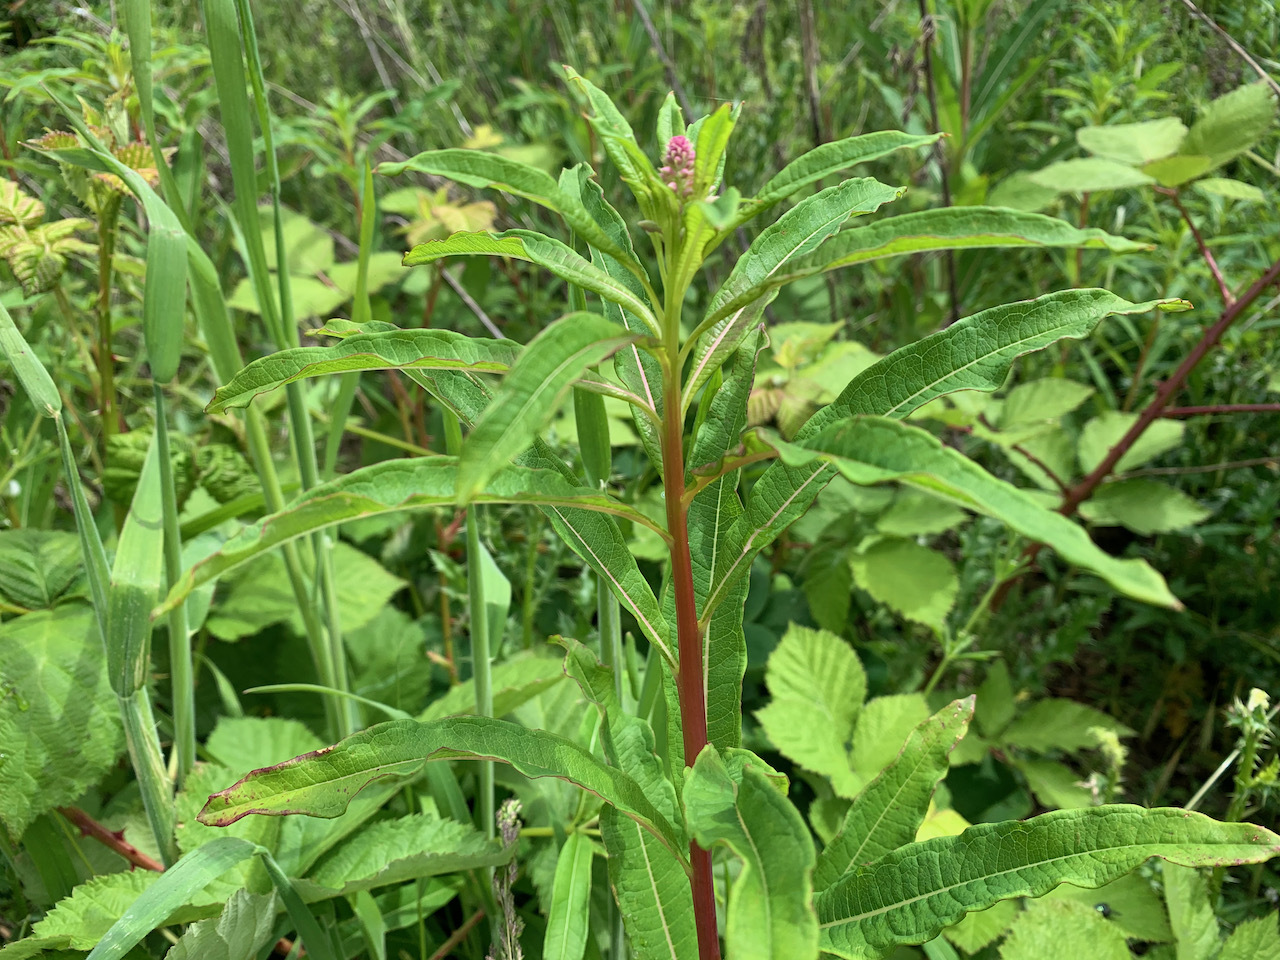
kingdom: Plantae
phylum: Tracheophyta
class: Magnoliopsida
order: Myrtales
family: Onagraceae
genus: Chamaenerion
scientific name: Chamaenerion angustifolium
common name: Fireweed
